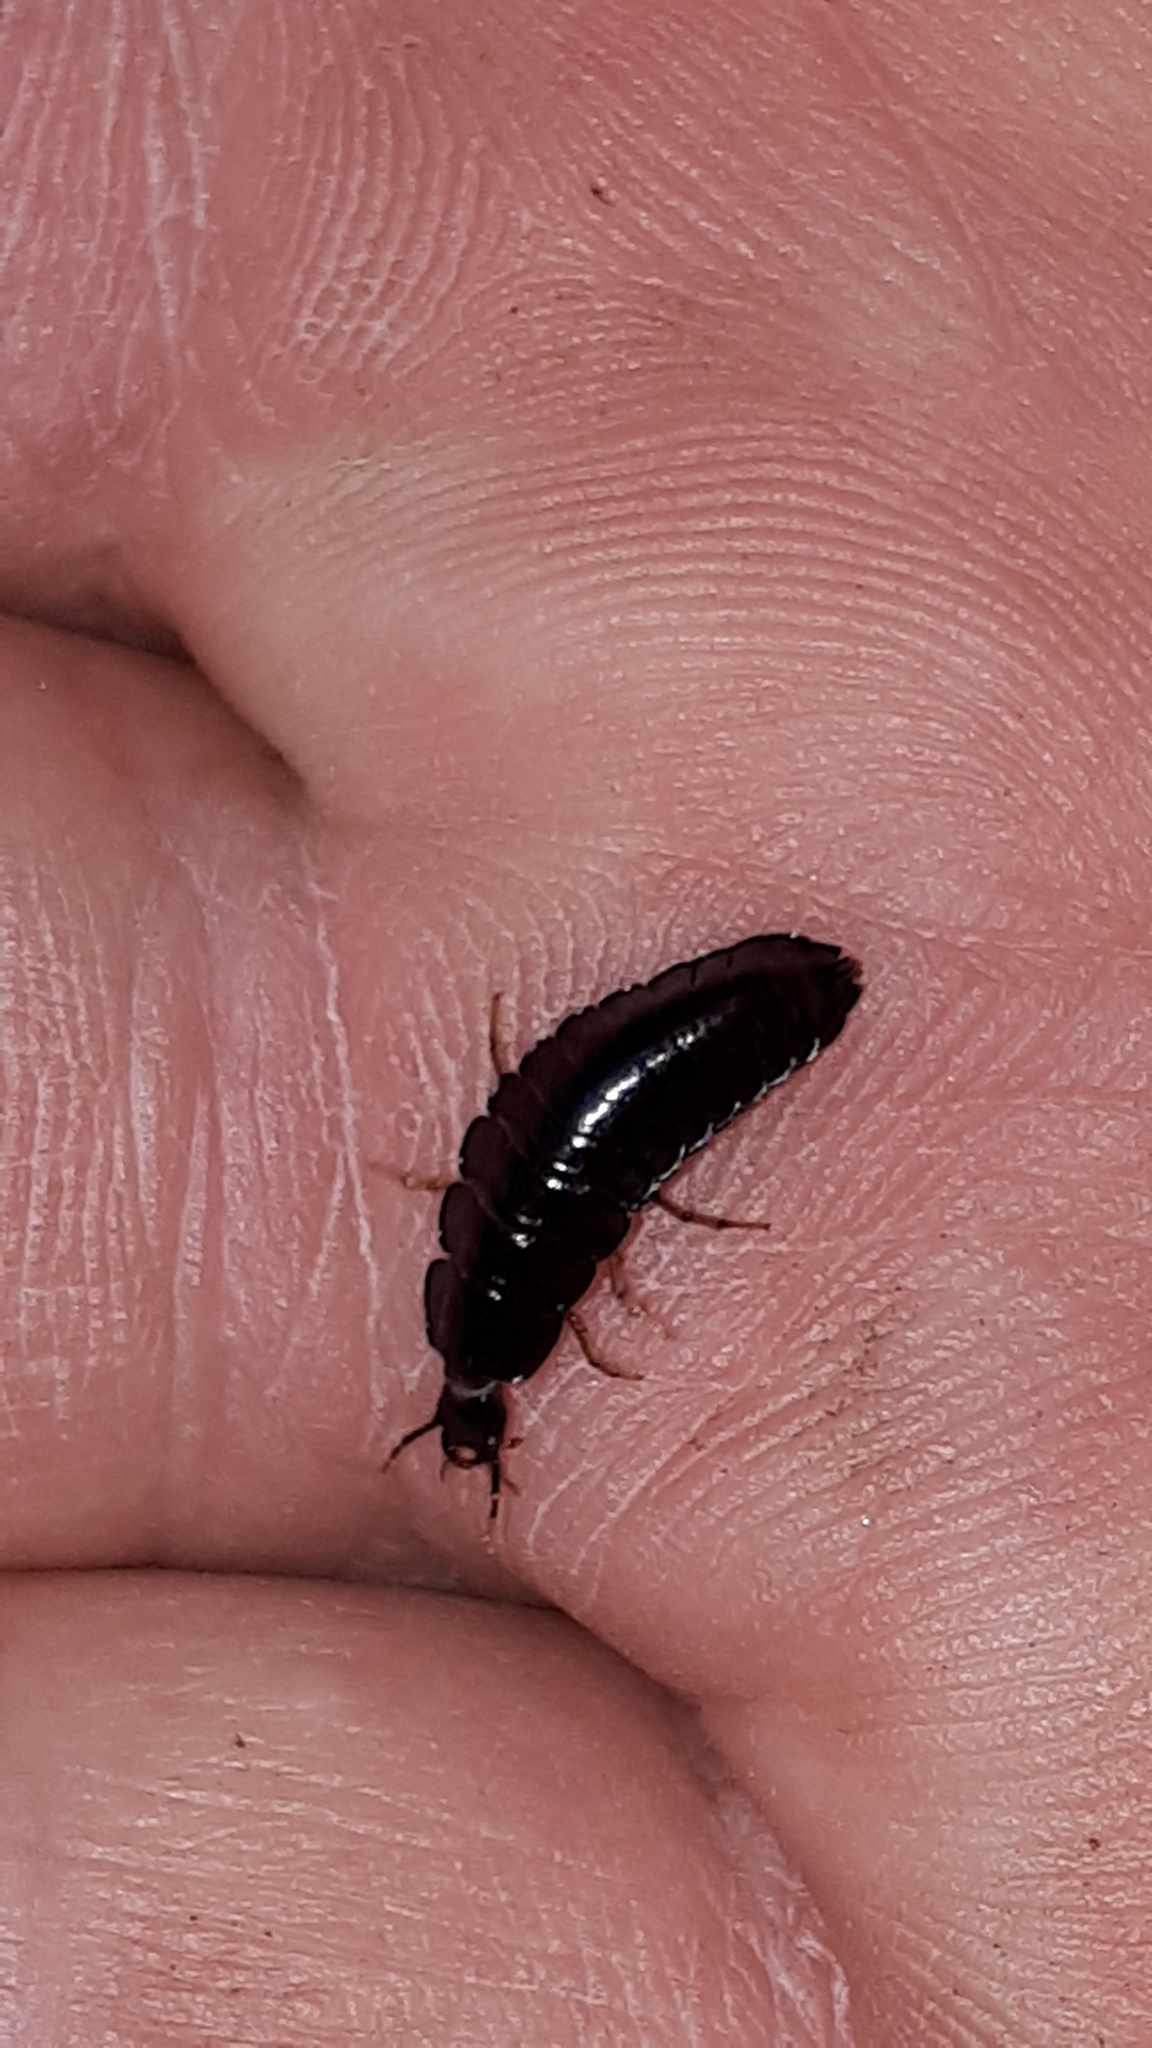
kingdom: Animalia
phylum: Arthropoda
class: Insecta
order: Coleoptera
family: Carabidae
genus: Carabus
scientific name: Carabus
